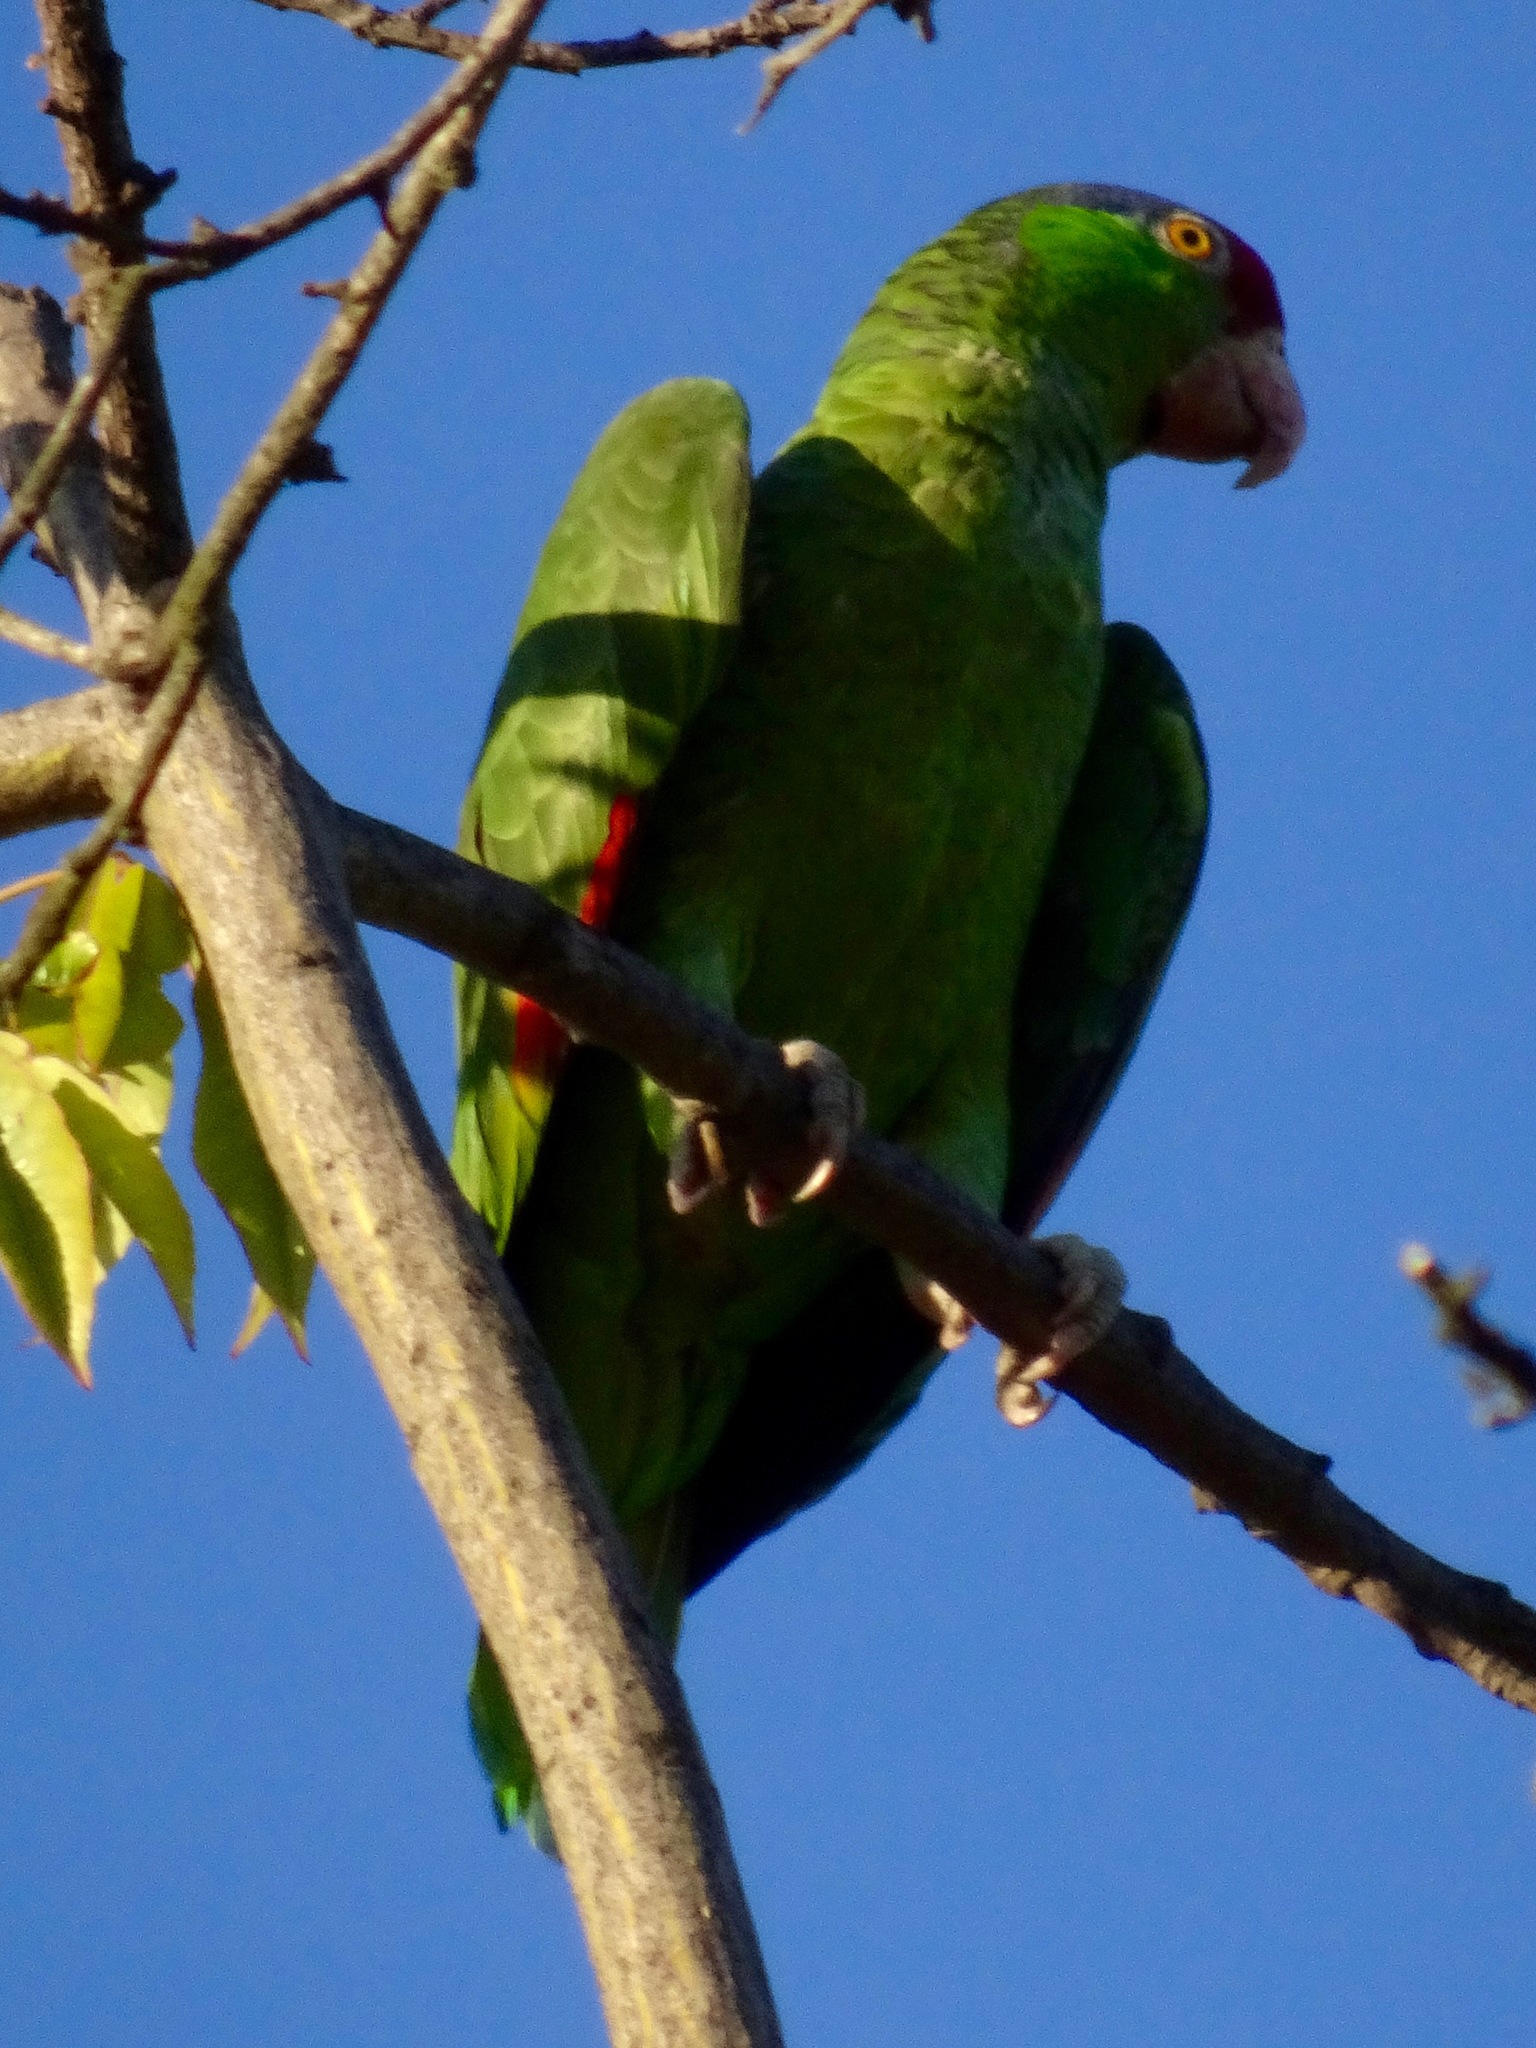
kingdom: Animalia
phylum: Chordata
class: Aves
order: Psittaciformes
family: Psittacidae
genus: Amazona
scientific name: Amazona viridigenalis
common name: Red-crowned amazon
